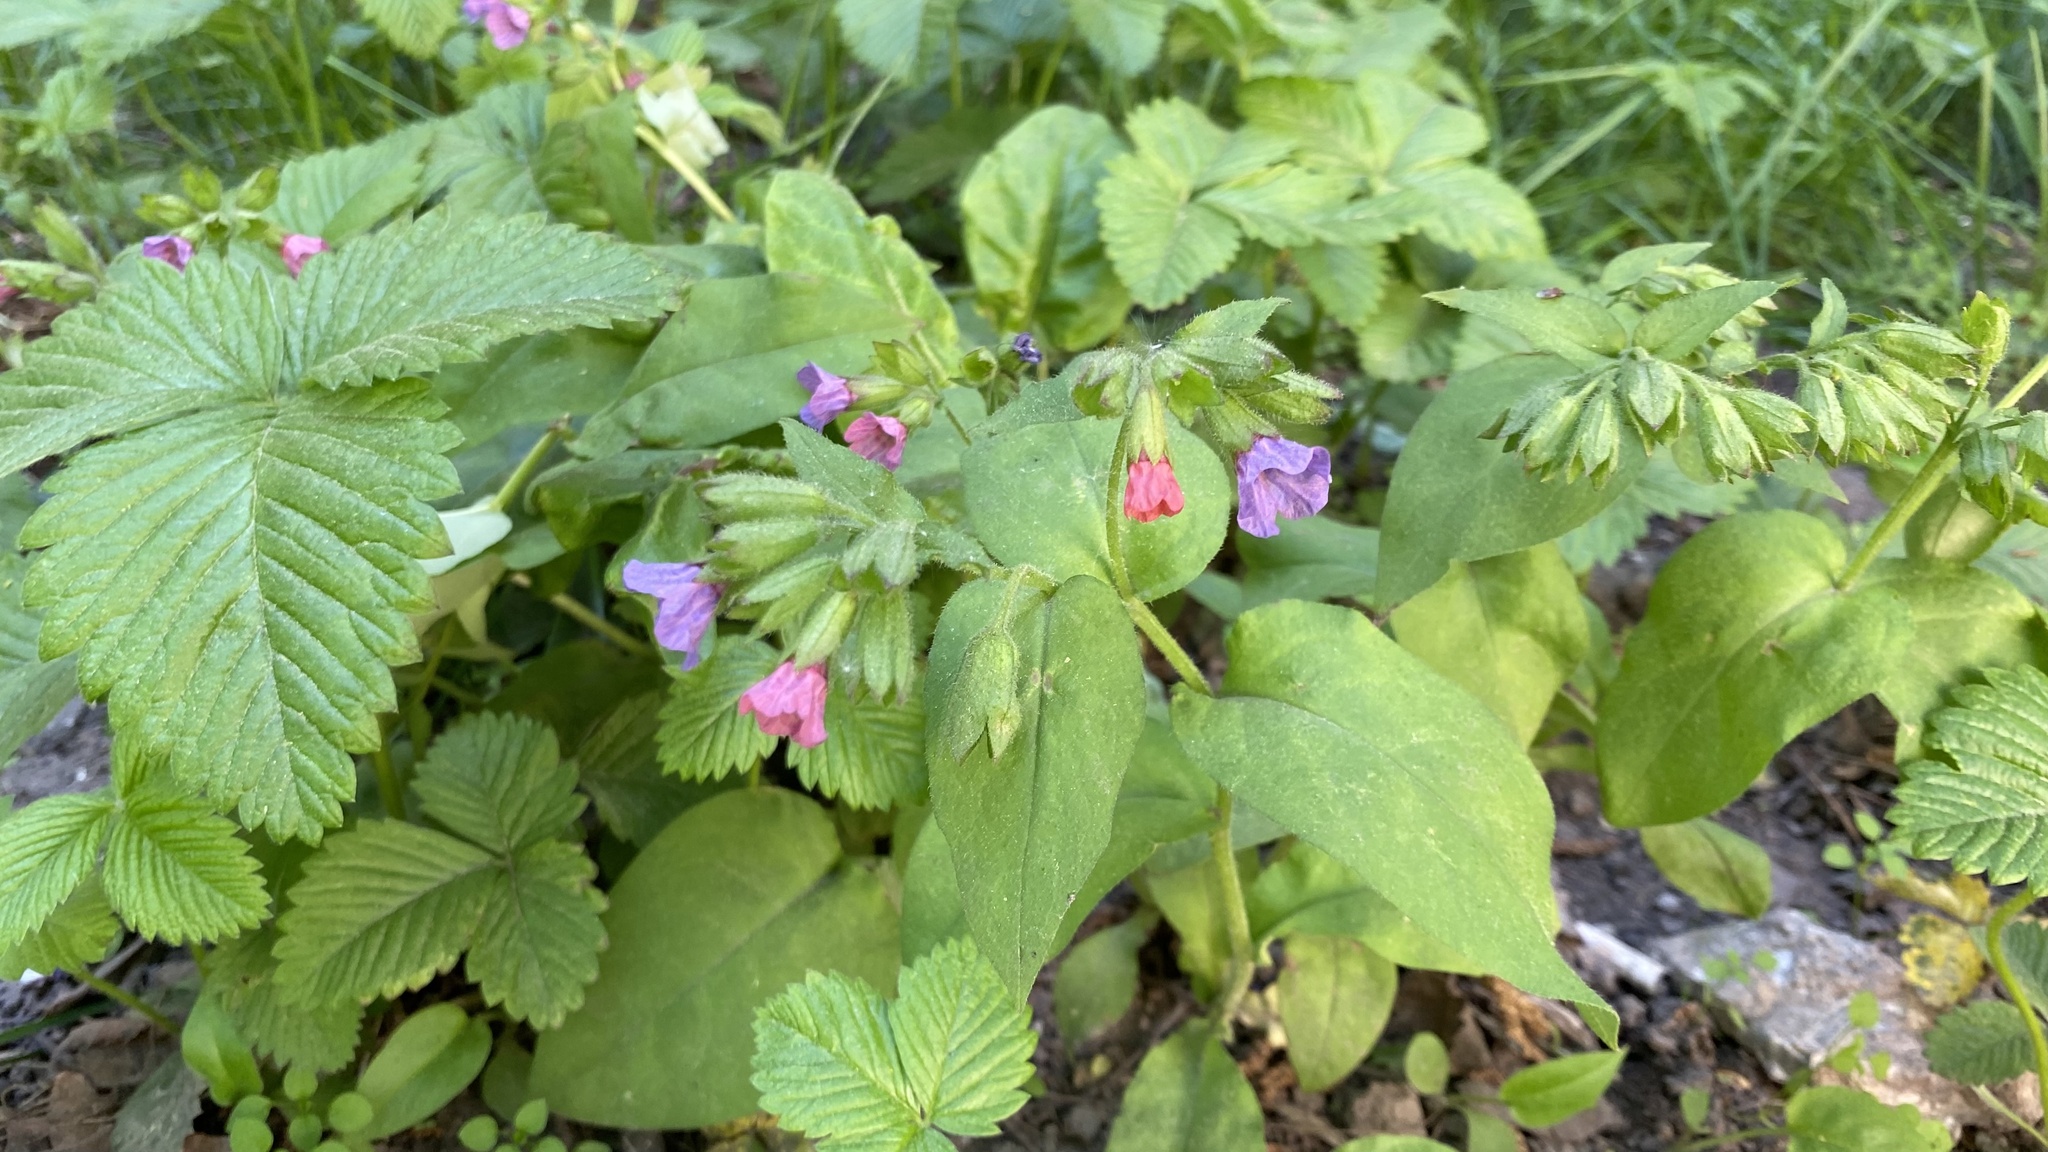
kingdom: Plantae
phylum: Tracheophyta
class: Magnoliopsida
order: Boraginales
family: Boraginaceae
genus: Pulmonaria
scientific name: Pulmonaria obscura
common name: Suffolk lungwort
